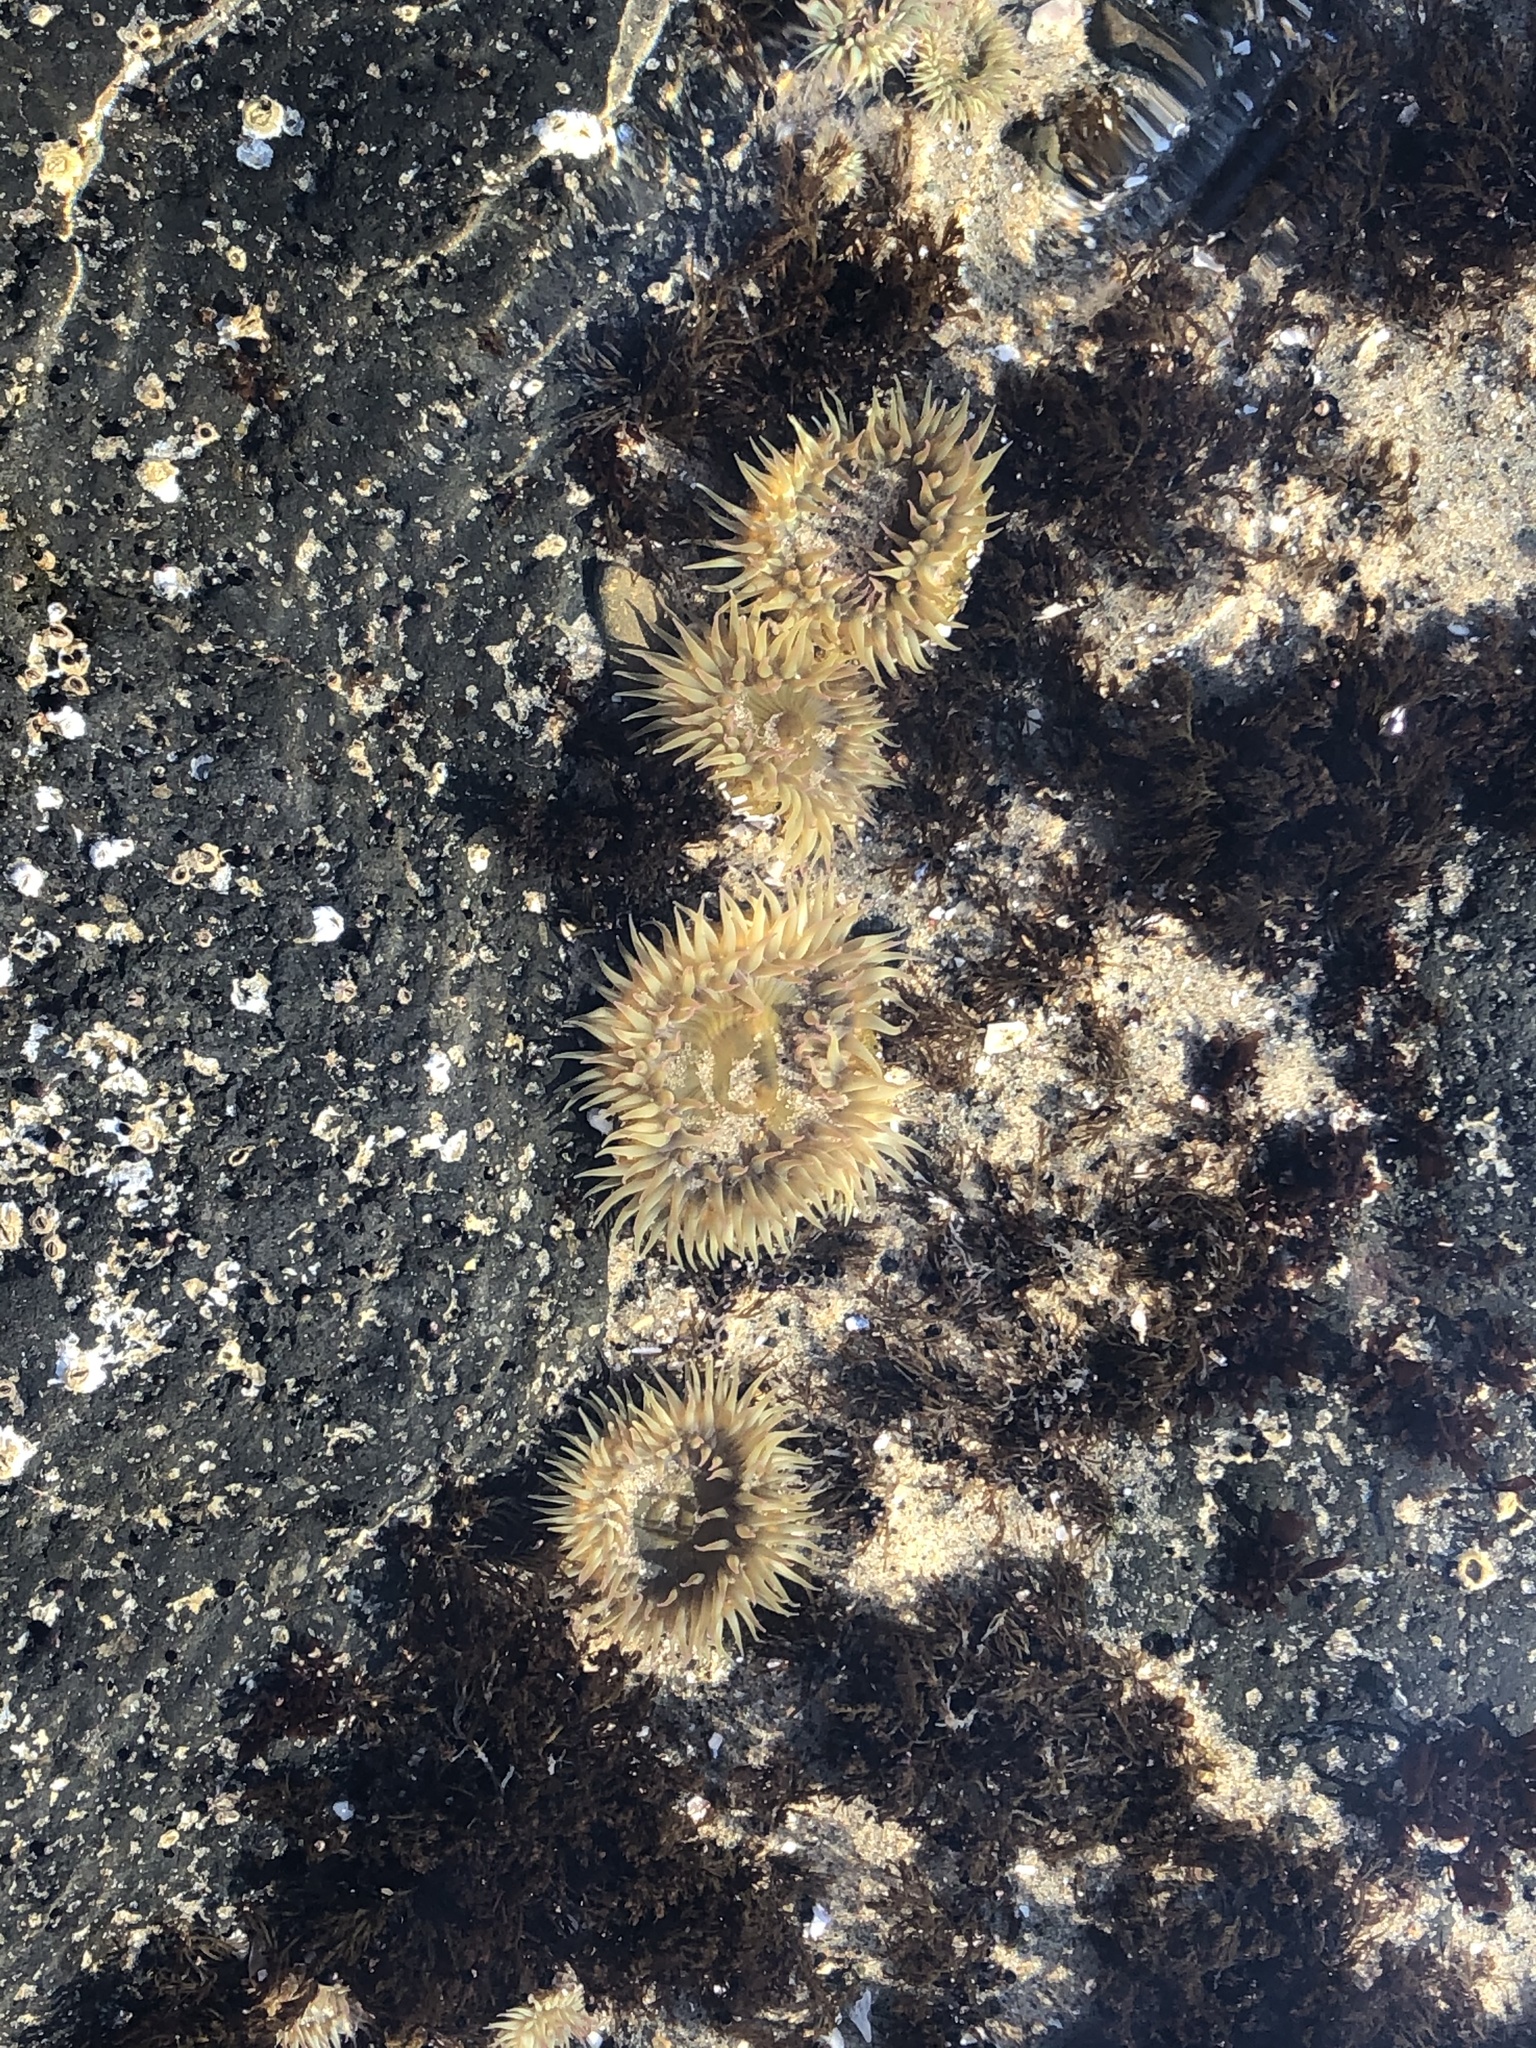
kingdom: Animalia
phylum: Cnidaria
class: Anthozoa
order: Actiniaria
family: Actiniidae
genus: Anthopleura
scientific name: Anthopleura elegantissima
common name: Clonal anemone
